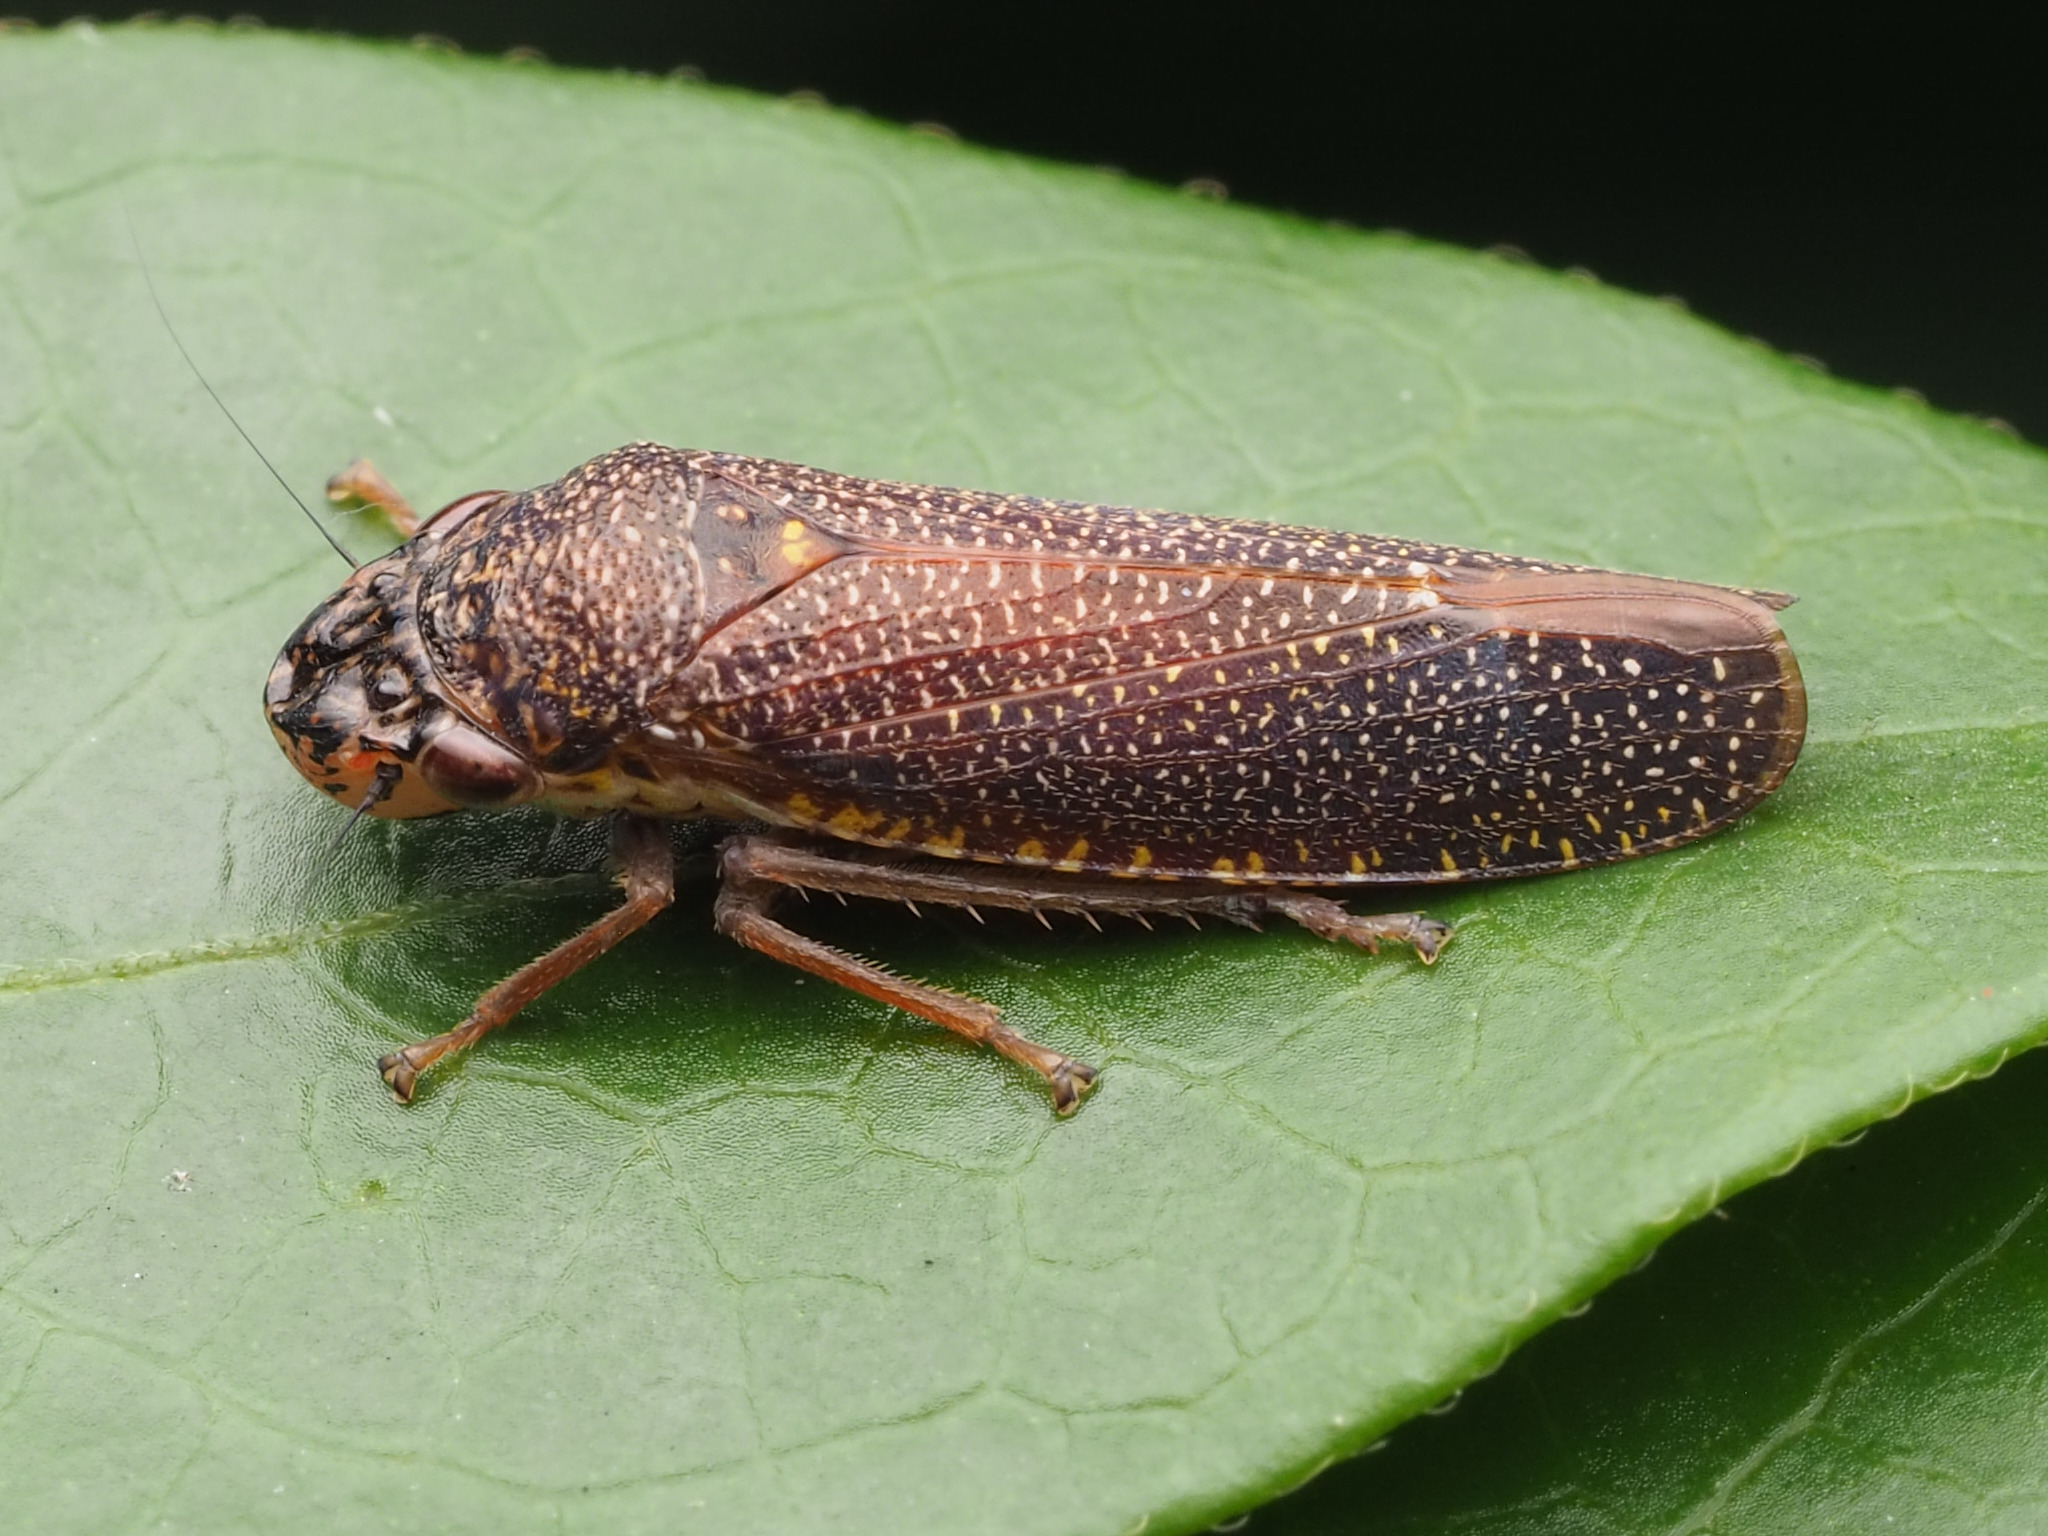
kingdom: Animalia
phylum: Arthropoda
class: Insecta
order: Hemiptera
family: Cicadellidae
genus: Paraulacizes
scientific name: Paraulacizes irrorata
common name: Speckled sharpshooter
